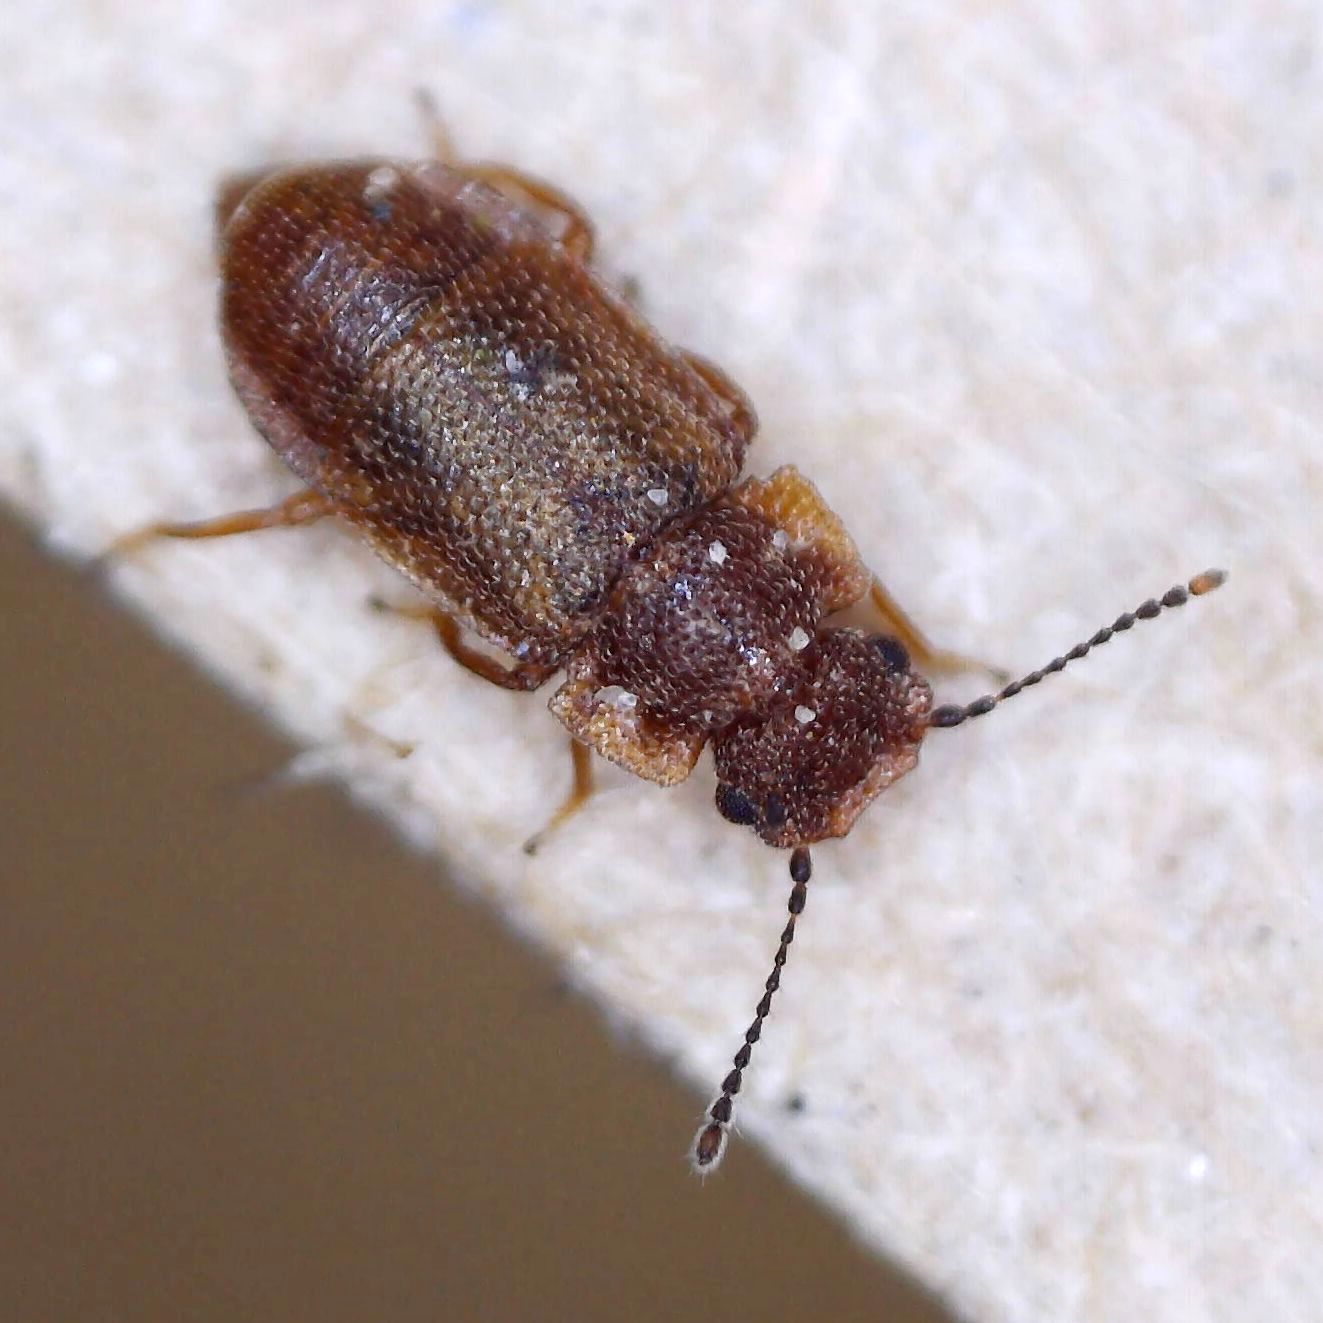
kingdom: Animalia
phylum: Arthropoda
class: Insecta
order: Coleoptera
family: Staphylinidae
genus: Metopsia
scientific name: Metopsia clypeata
